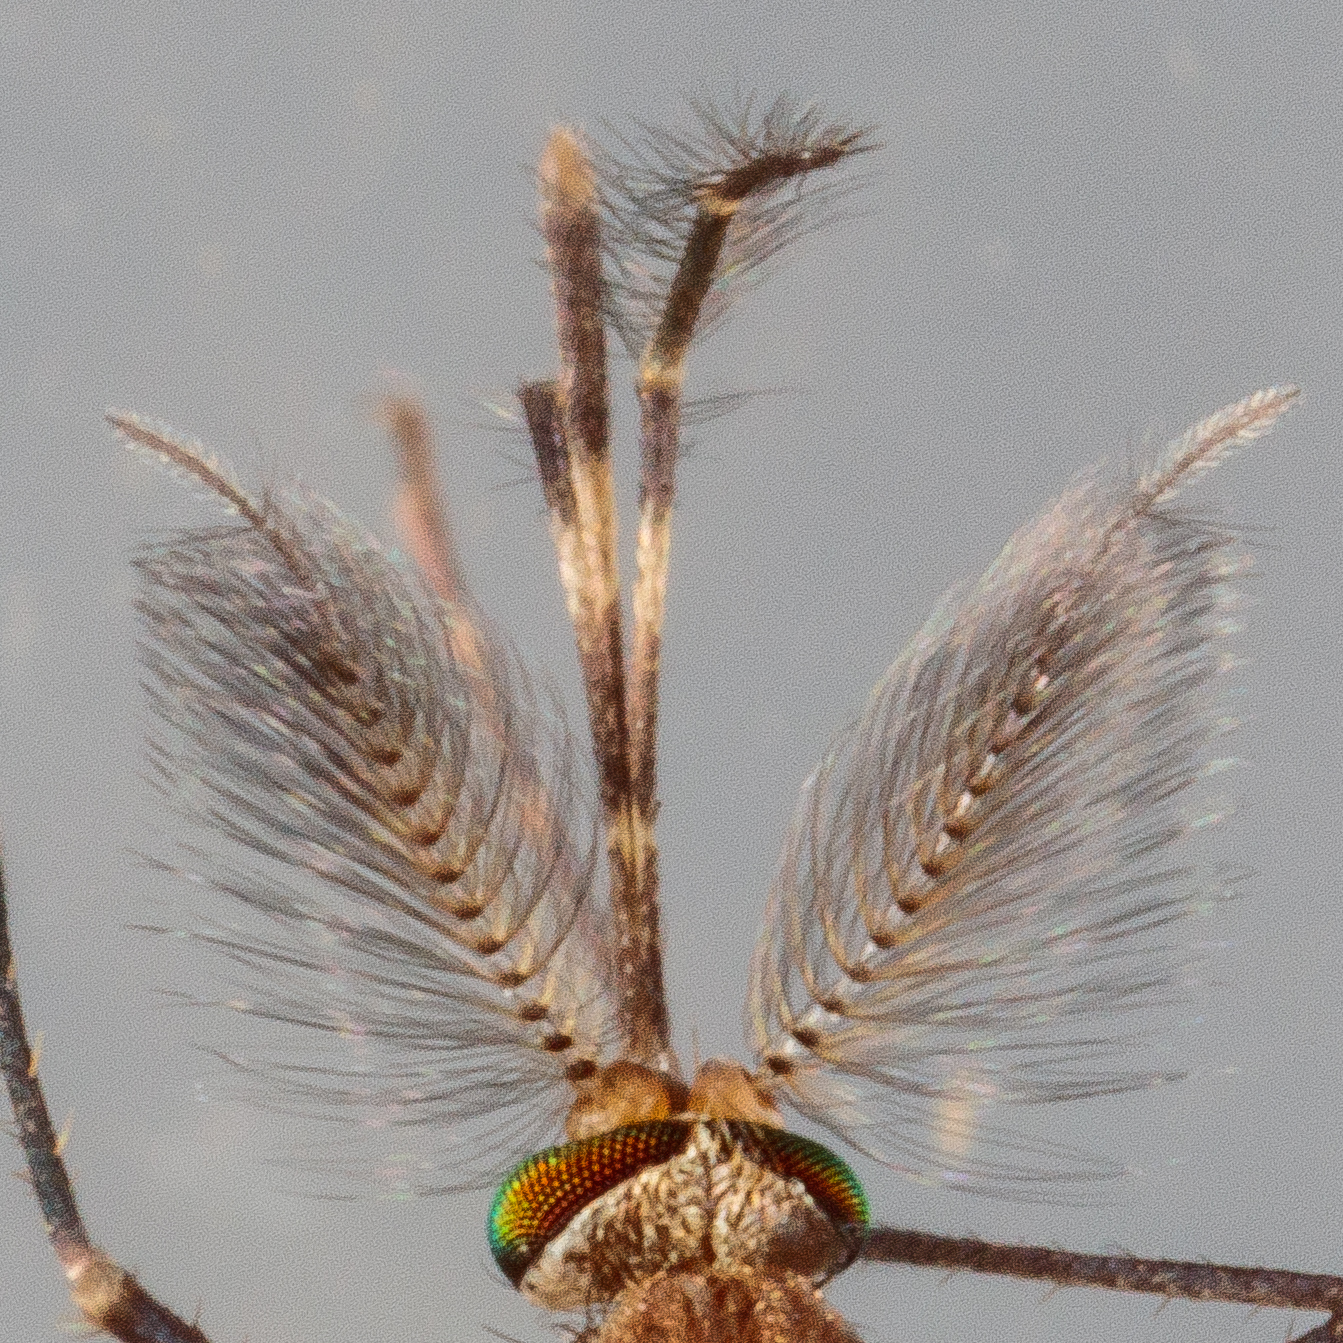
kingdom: Animalia
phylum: Arthropoda
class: Insecta
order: Diptera
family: Culicidae
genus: Culex
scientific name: Culex tarsalis
